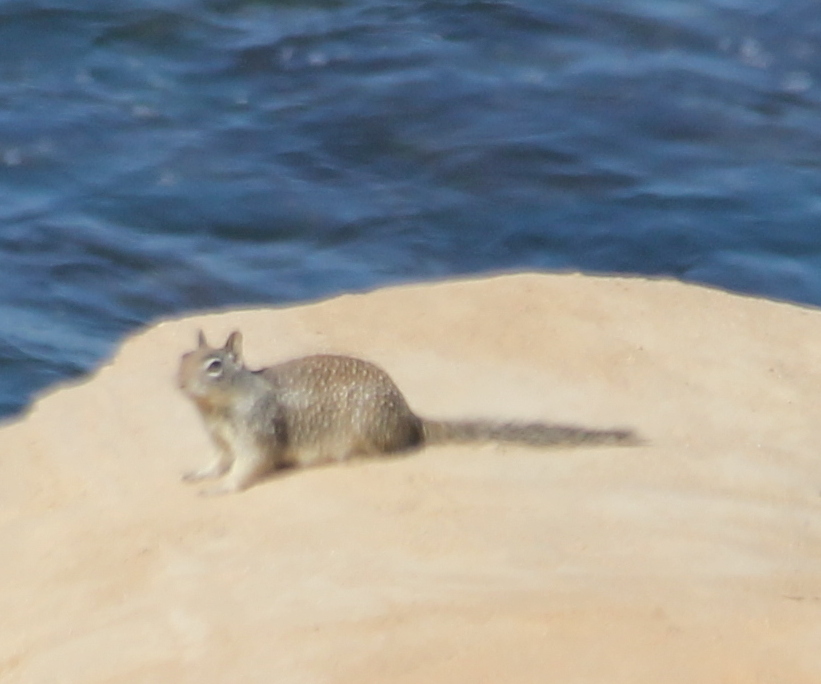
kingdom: Animalia
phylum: Chordata
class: Mammalia
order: Rodentia
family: Sciuridae
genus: Otospermophilus
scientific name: Otospermophilus beecheyi
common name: California ground squirrel
